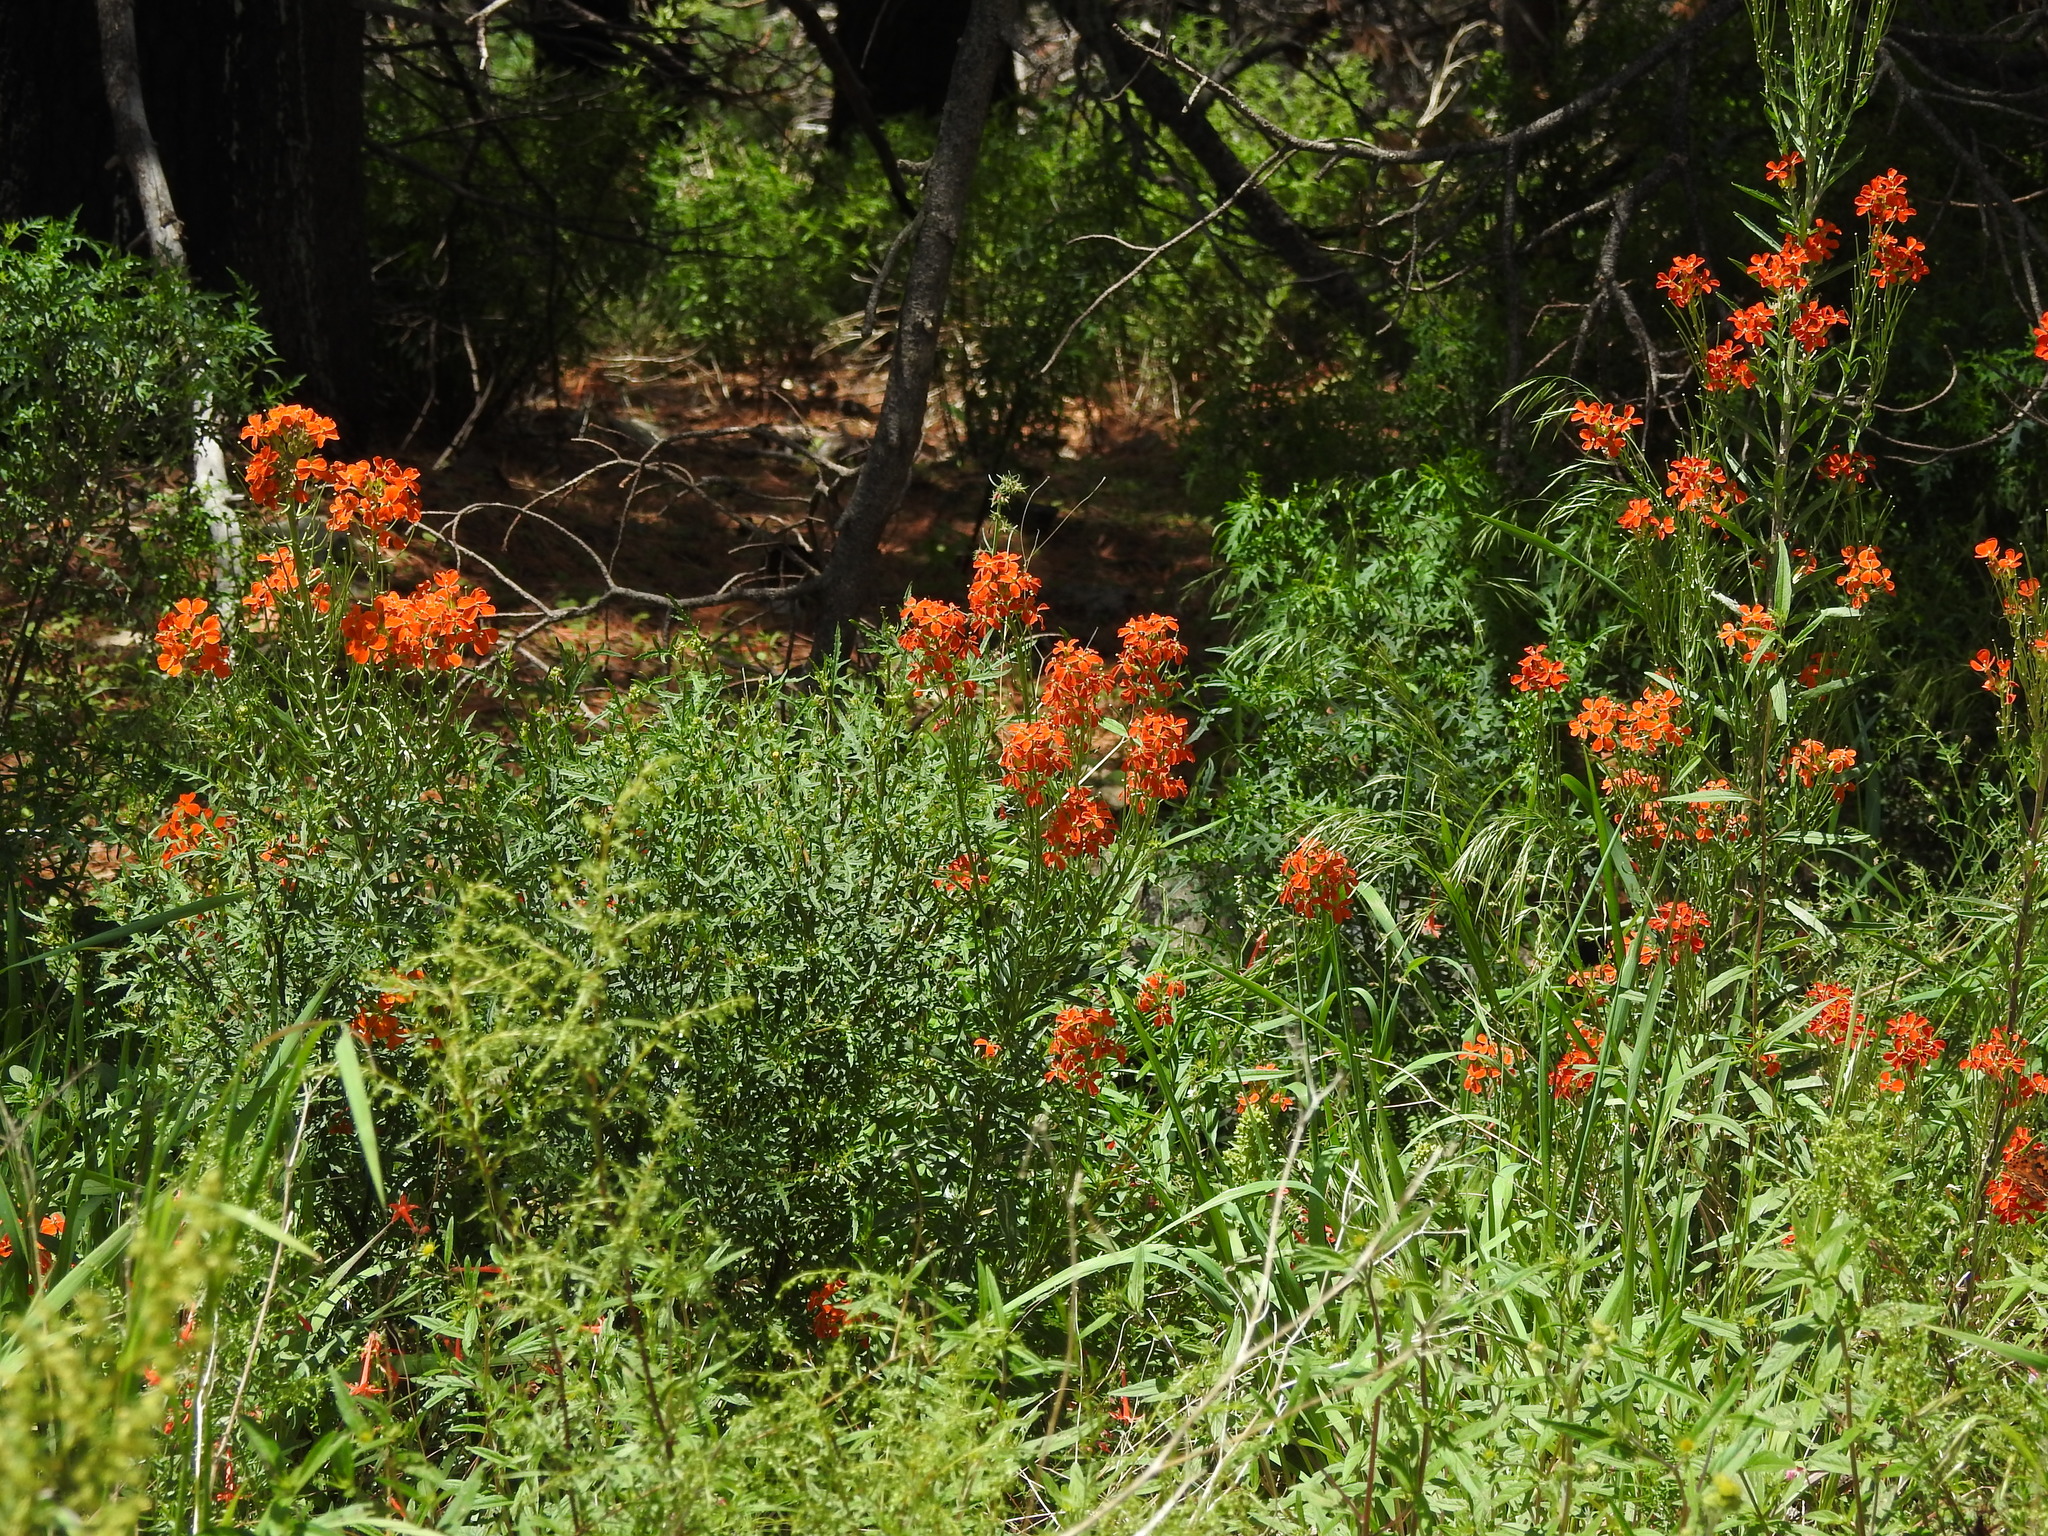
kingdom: Plantae
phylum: Tracheophyta
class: Magnoliopsida
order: Brassicales
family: Brassicaceae
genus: Erysimum
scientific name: Erysimum capitatum
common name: Western wallflower
